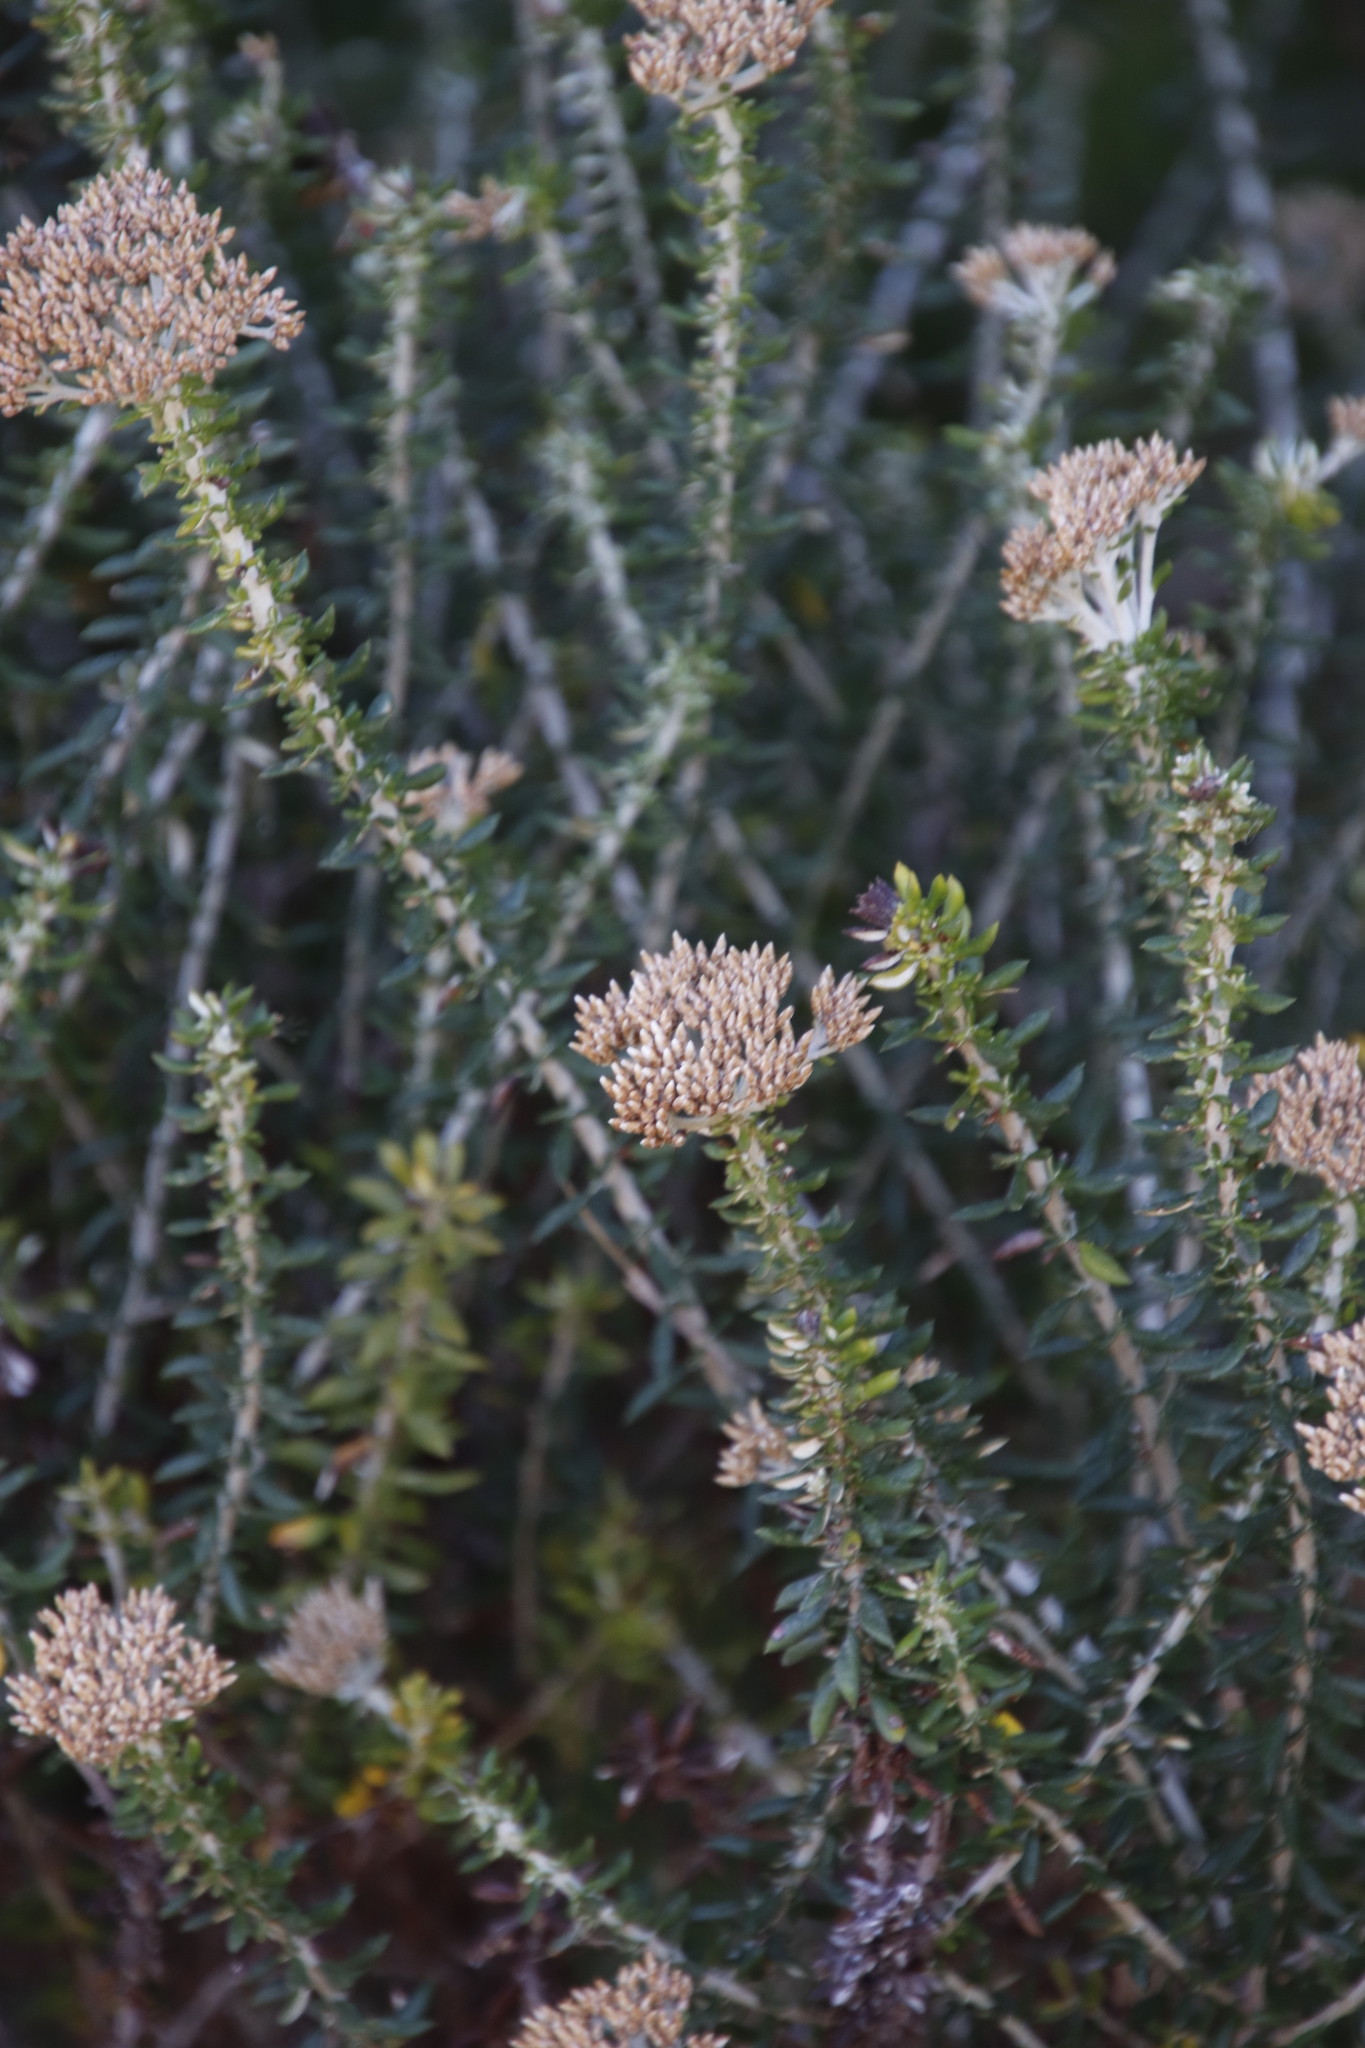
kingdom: Plantae
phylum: Tracheophyta
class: Magnoliopsida
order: Asterales
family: Asteraceae
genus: Metalasia
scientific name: Metalasia densa
